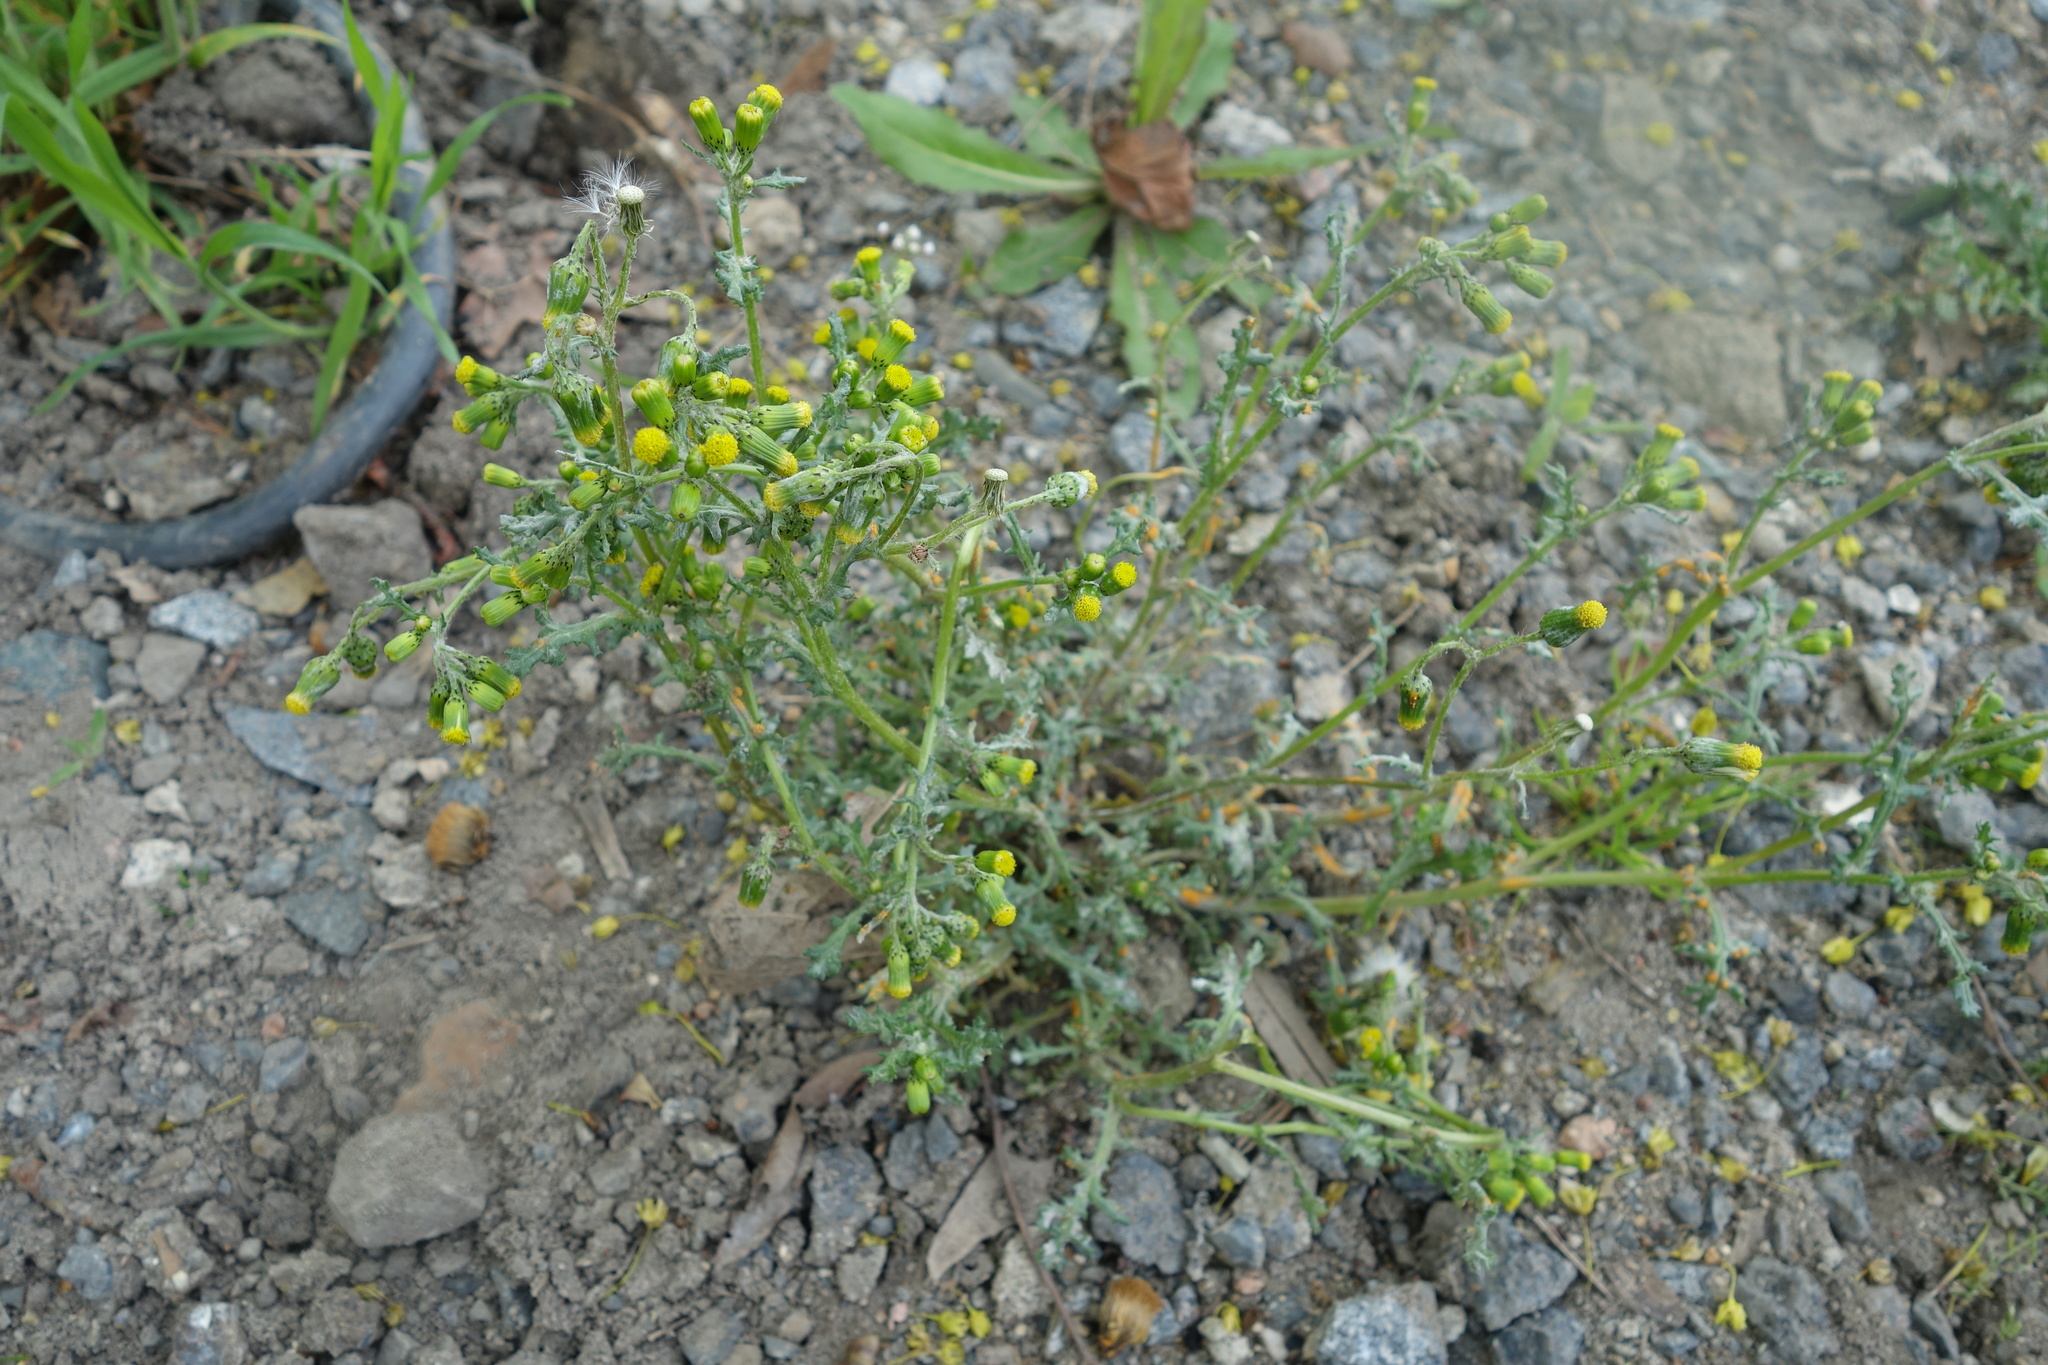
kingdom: Plantae
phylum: Tracheophyta
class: Magnoliopsida
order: Asterales
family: Asteraceae
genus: Senecio
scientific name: Senecio vulgaris
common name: Old-man-in-the-spring
